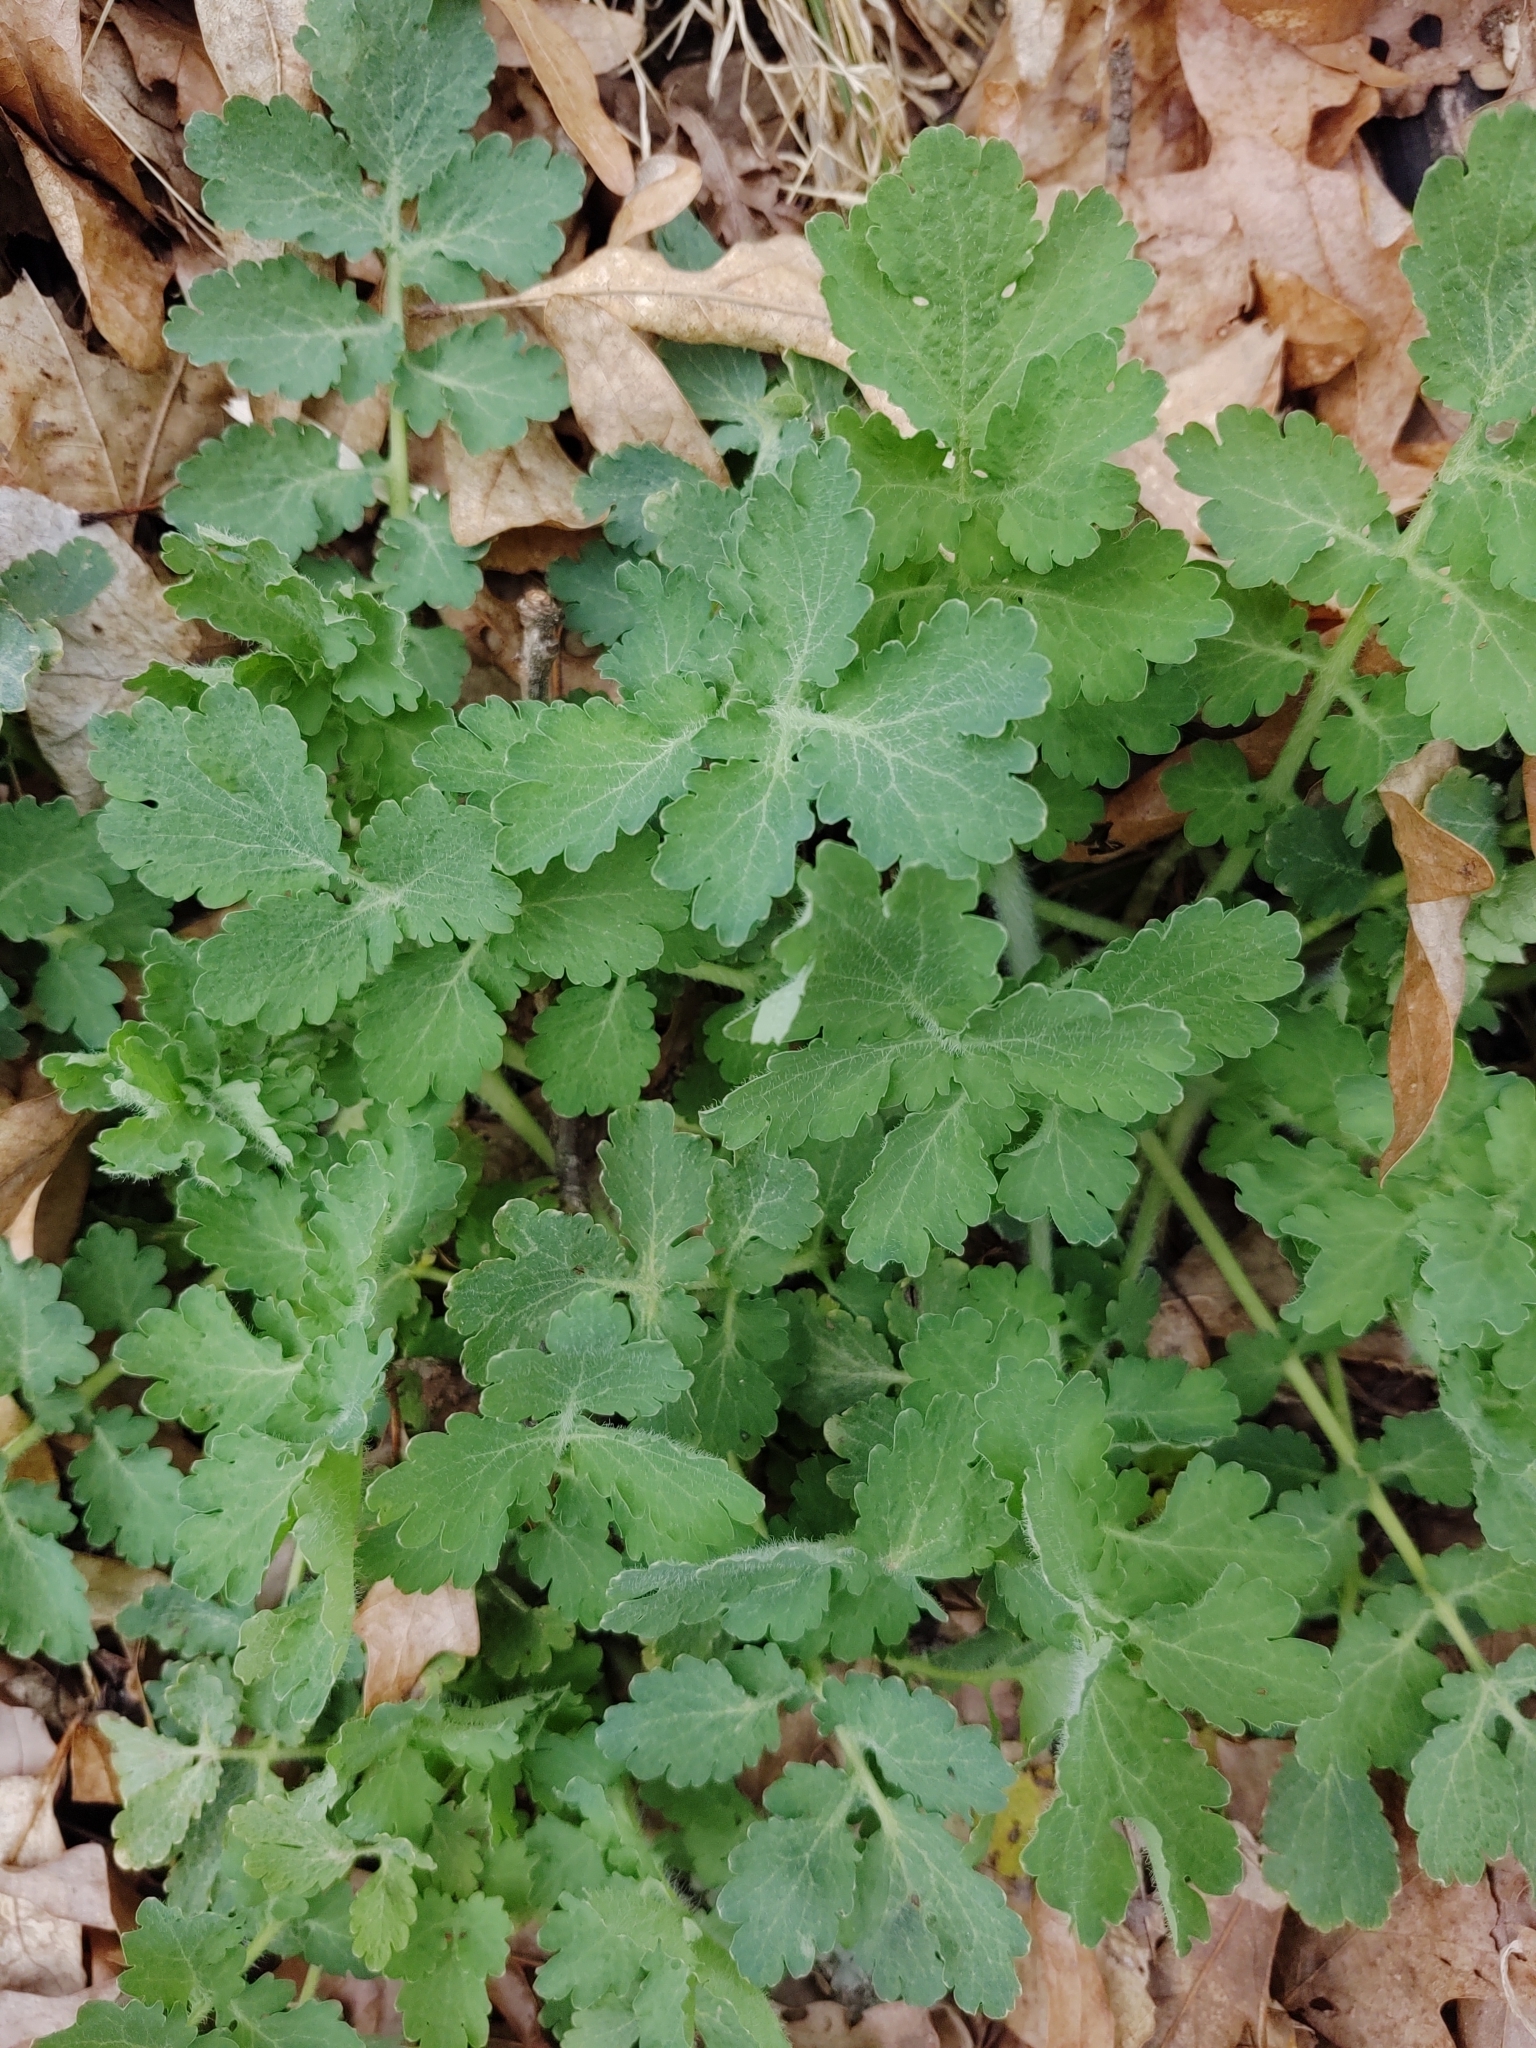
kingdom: Plantae
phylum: Tracheophyta
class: Magnoliopsida
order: Ranunculales
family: Papaveraceae
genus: Chelidonium
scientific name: Chelidonium majus
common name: Greater celandine
